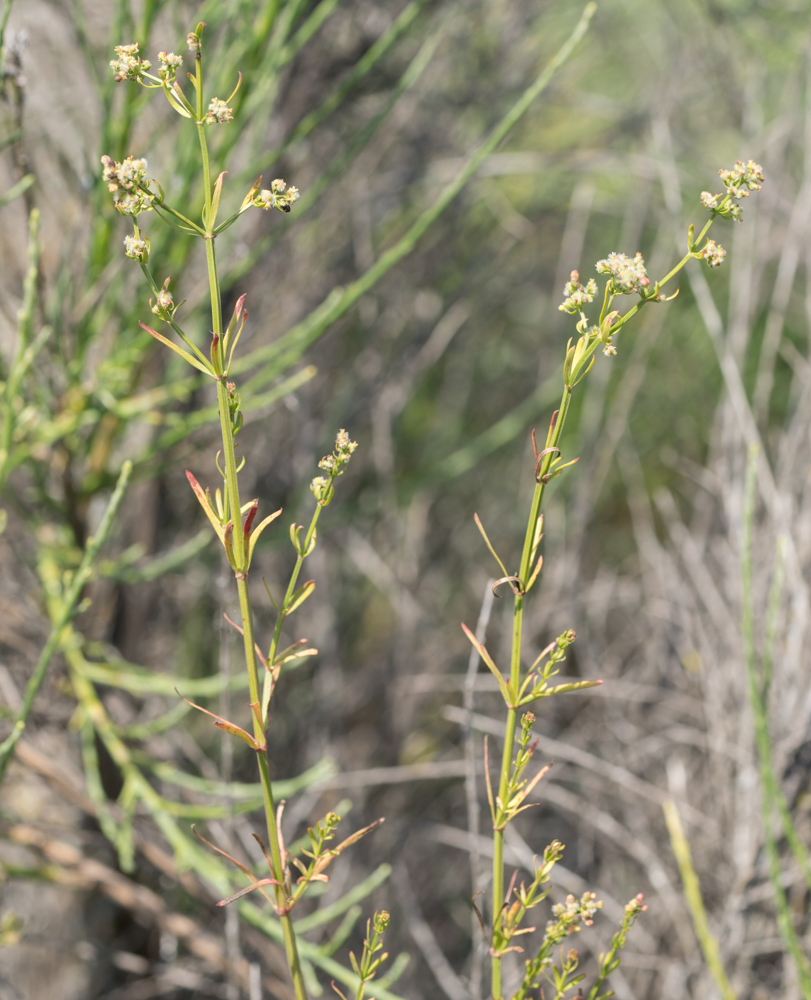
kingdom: Plantae
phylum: Tracheophyta
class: Magnoliopsida
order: Gentianales
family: Rubiaceae
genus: Galium
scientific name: Galium angustifolium
